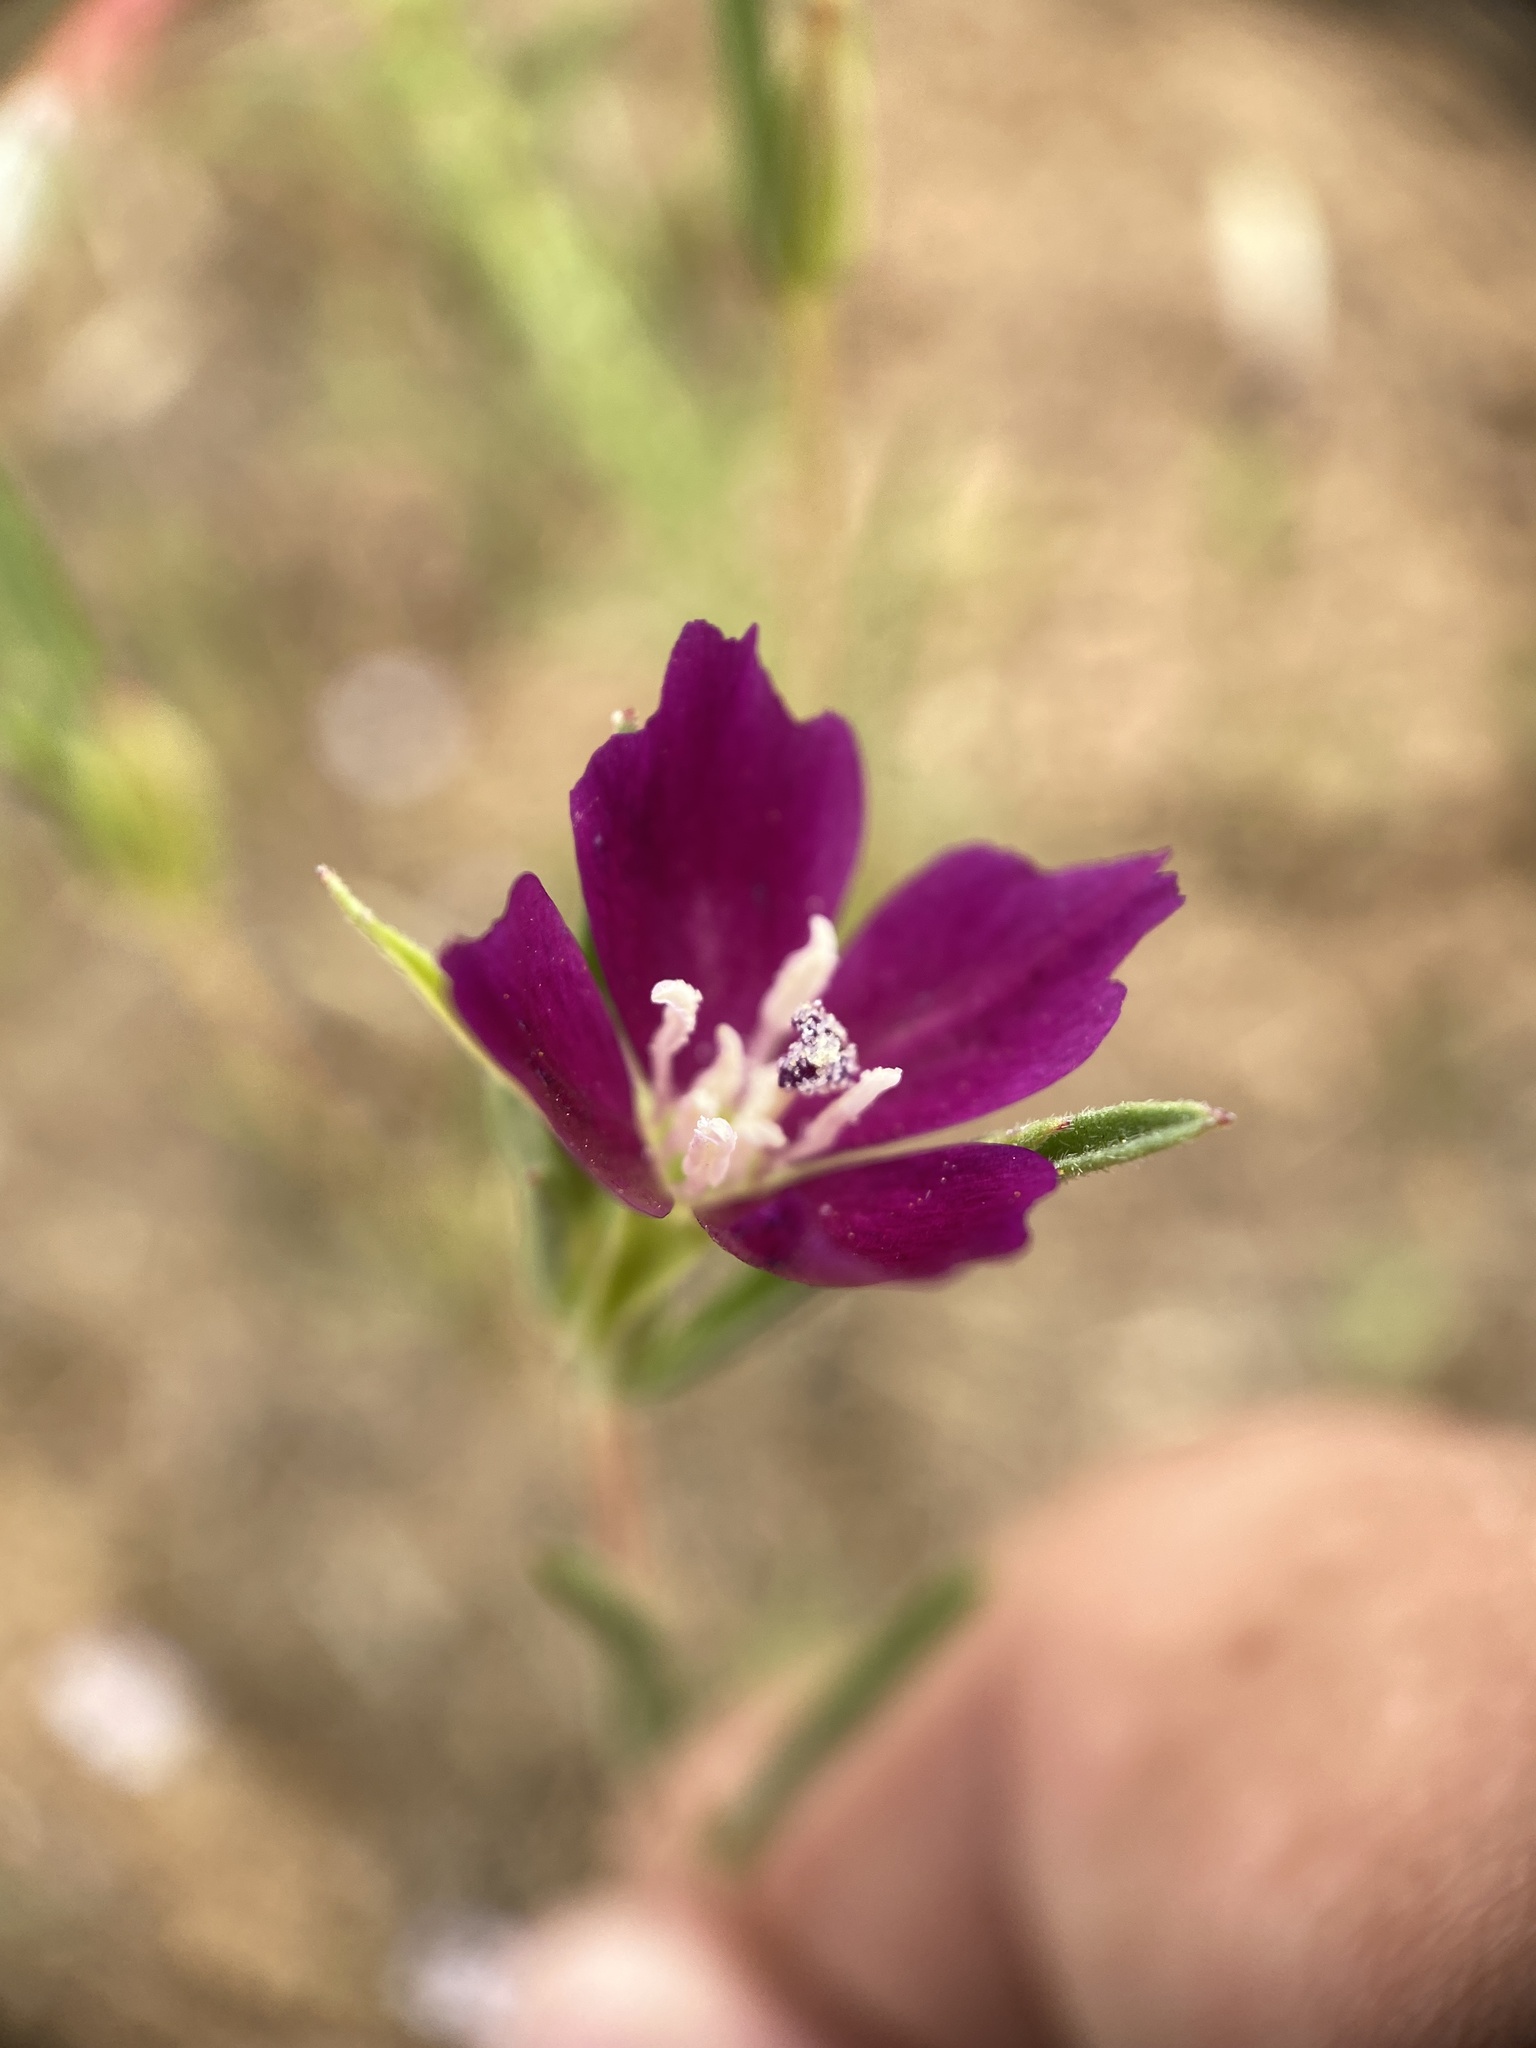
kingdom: Plantae
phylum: Tracheophyta
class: Magnoliopsida
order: Myrtales
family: Onagraceae
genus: Clarkia
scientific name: Clarkia purpurea
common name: Purple clarkia
